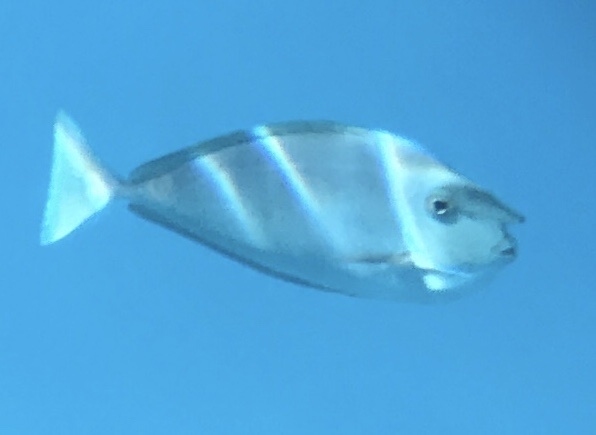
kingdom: Animalia
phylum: Chordata
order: Perciformes
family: Acanthuridae
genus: Naso
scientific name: Naso brevirostris
